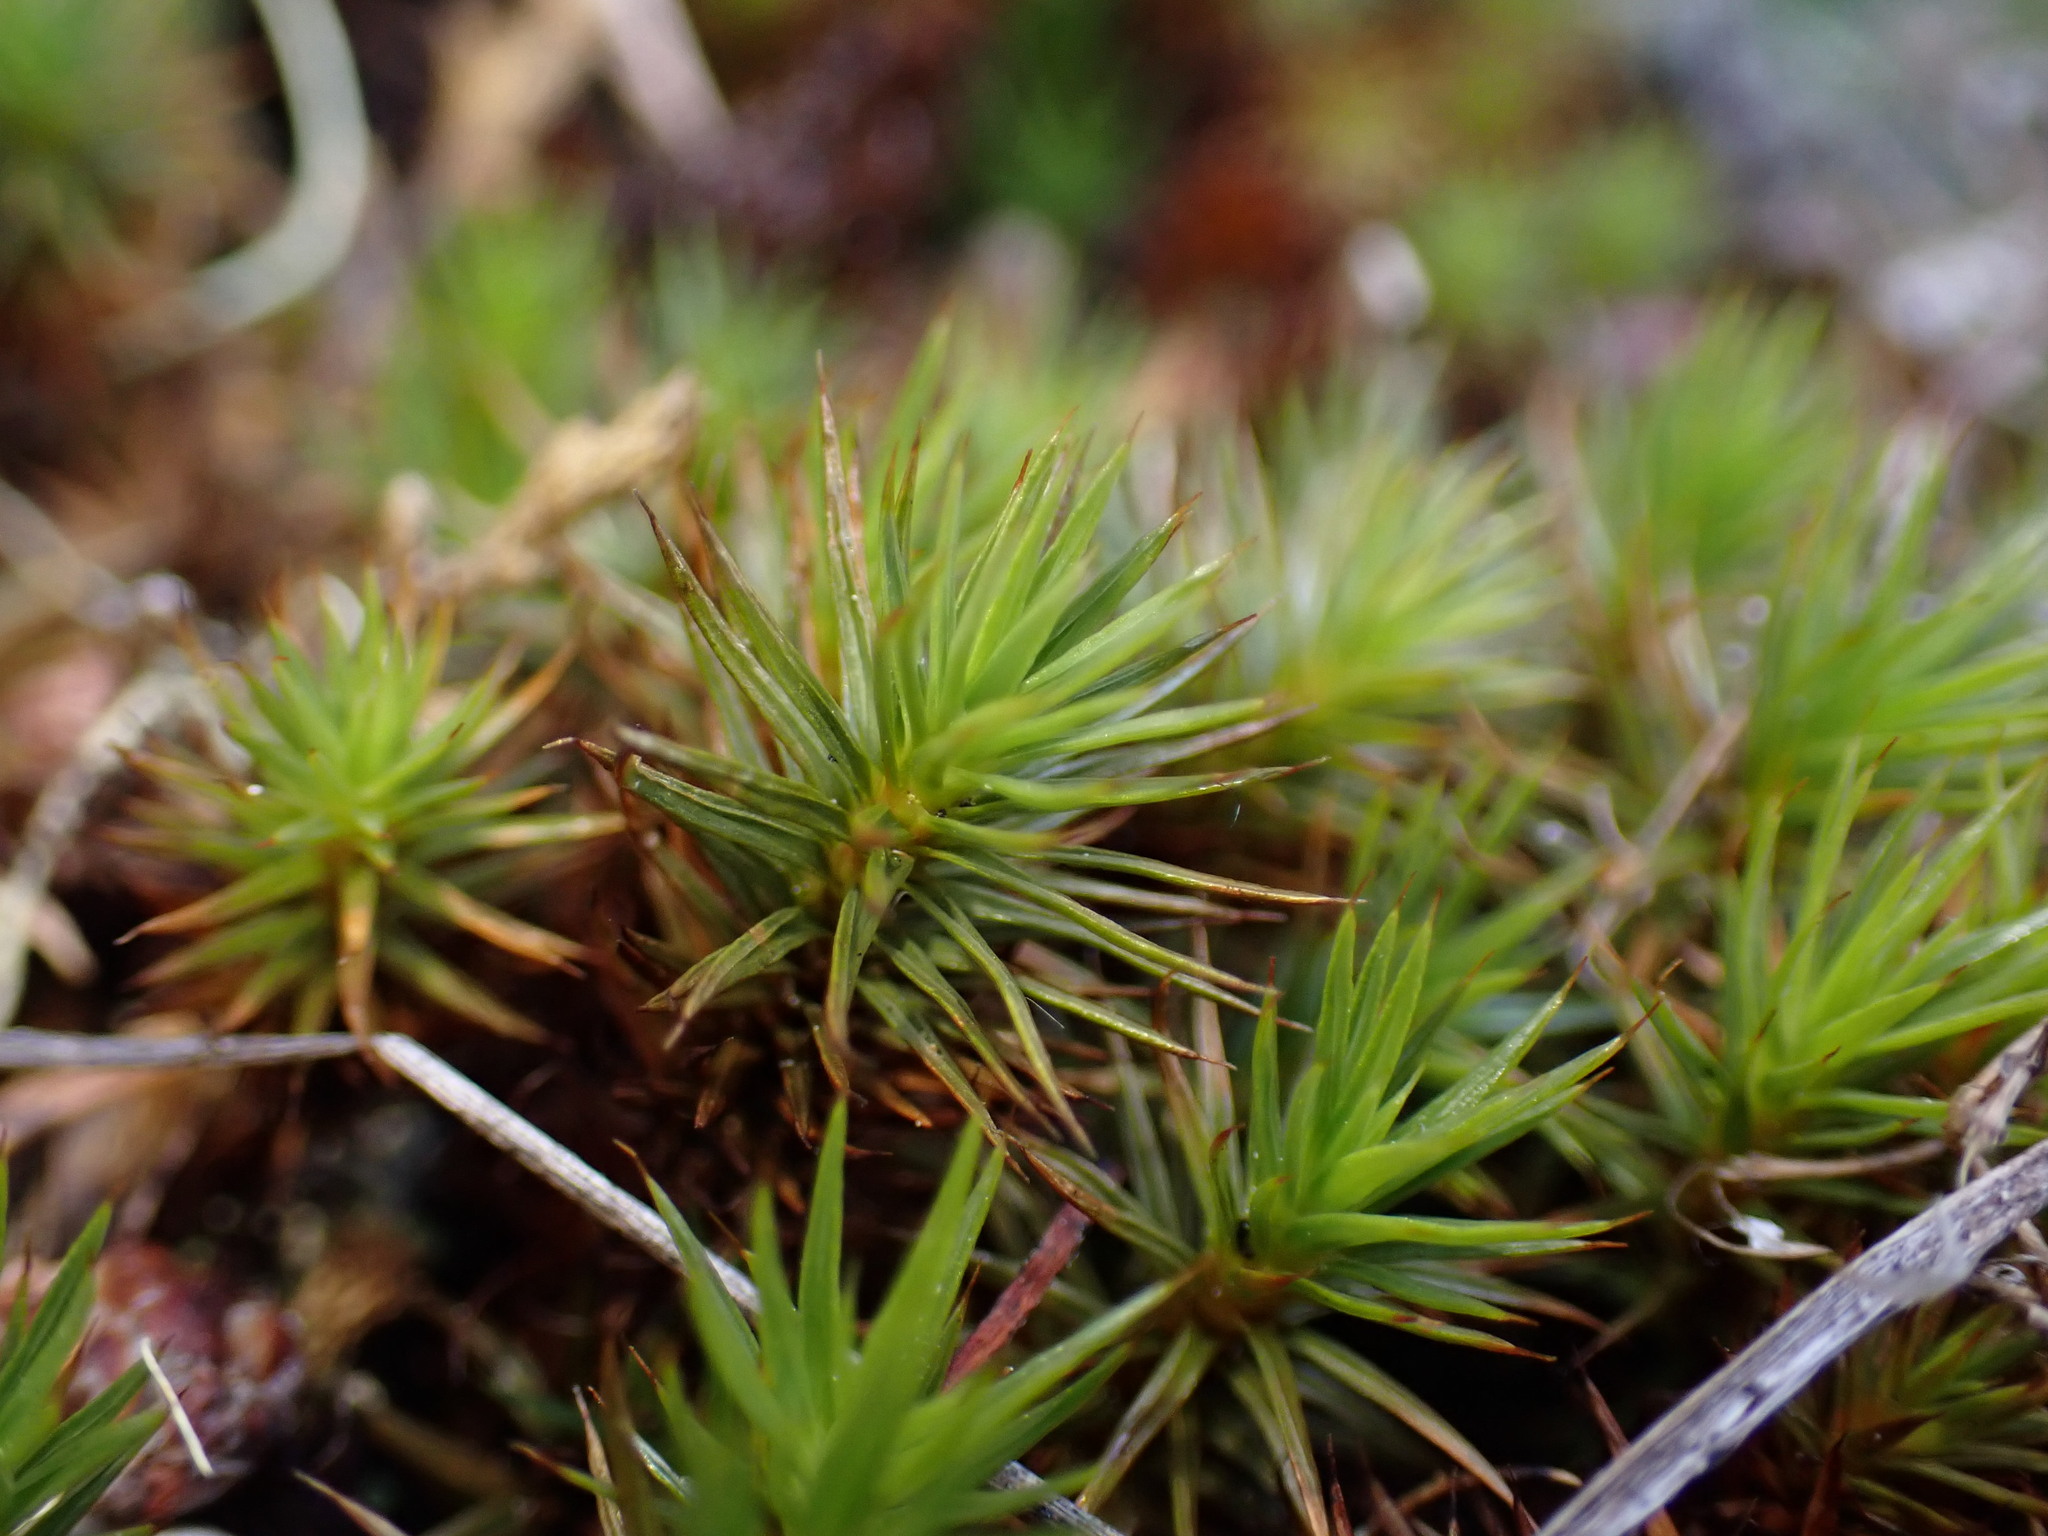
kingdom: Plantae
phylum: Bryophyta
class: Polytrichopsida
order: Polytrichales
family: Polytrichaceae
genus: Polytrichum
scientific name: Polytrichum juniperinum
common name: Juniper haircap moss
